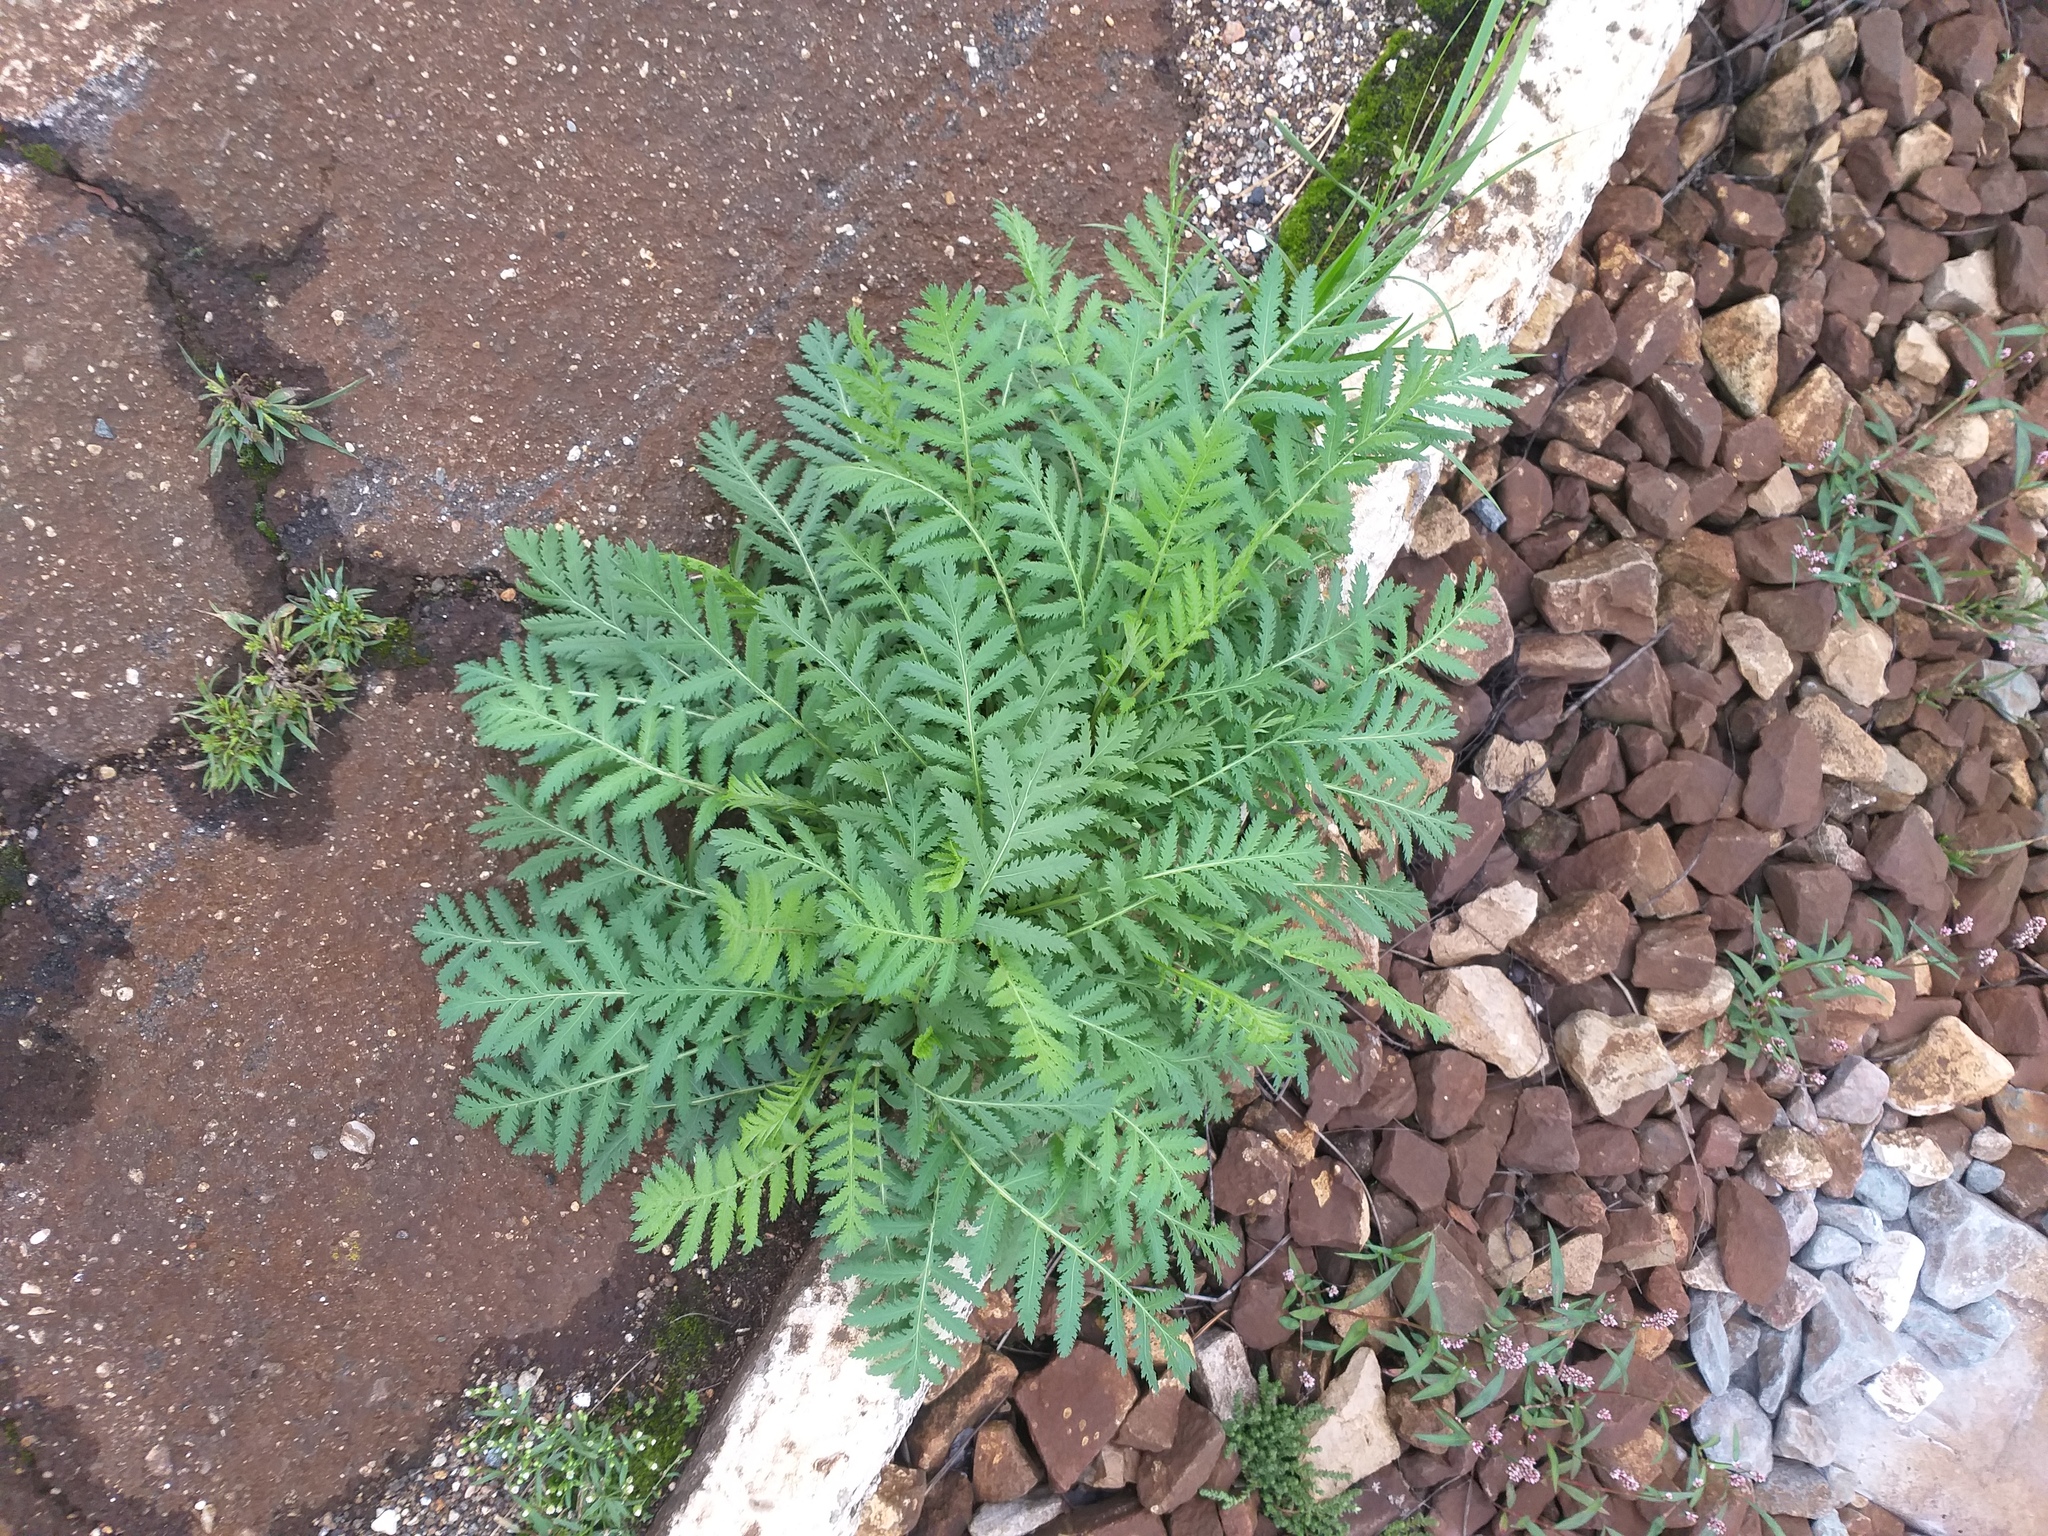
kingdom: Plantae
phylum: Tracheophyta
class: Magnoliopsida
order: Asterales
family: Asteraceae
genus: Tanacetum
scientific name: Tanacetum vulgare
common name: Common tansy
